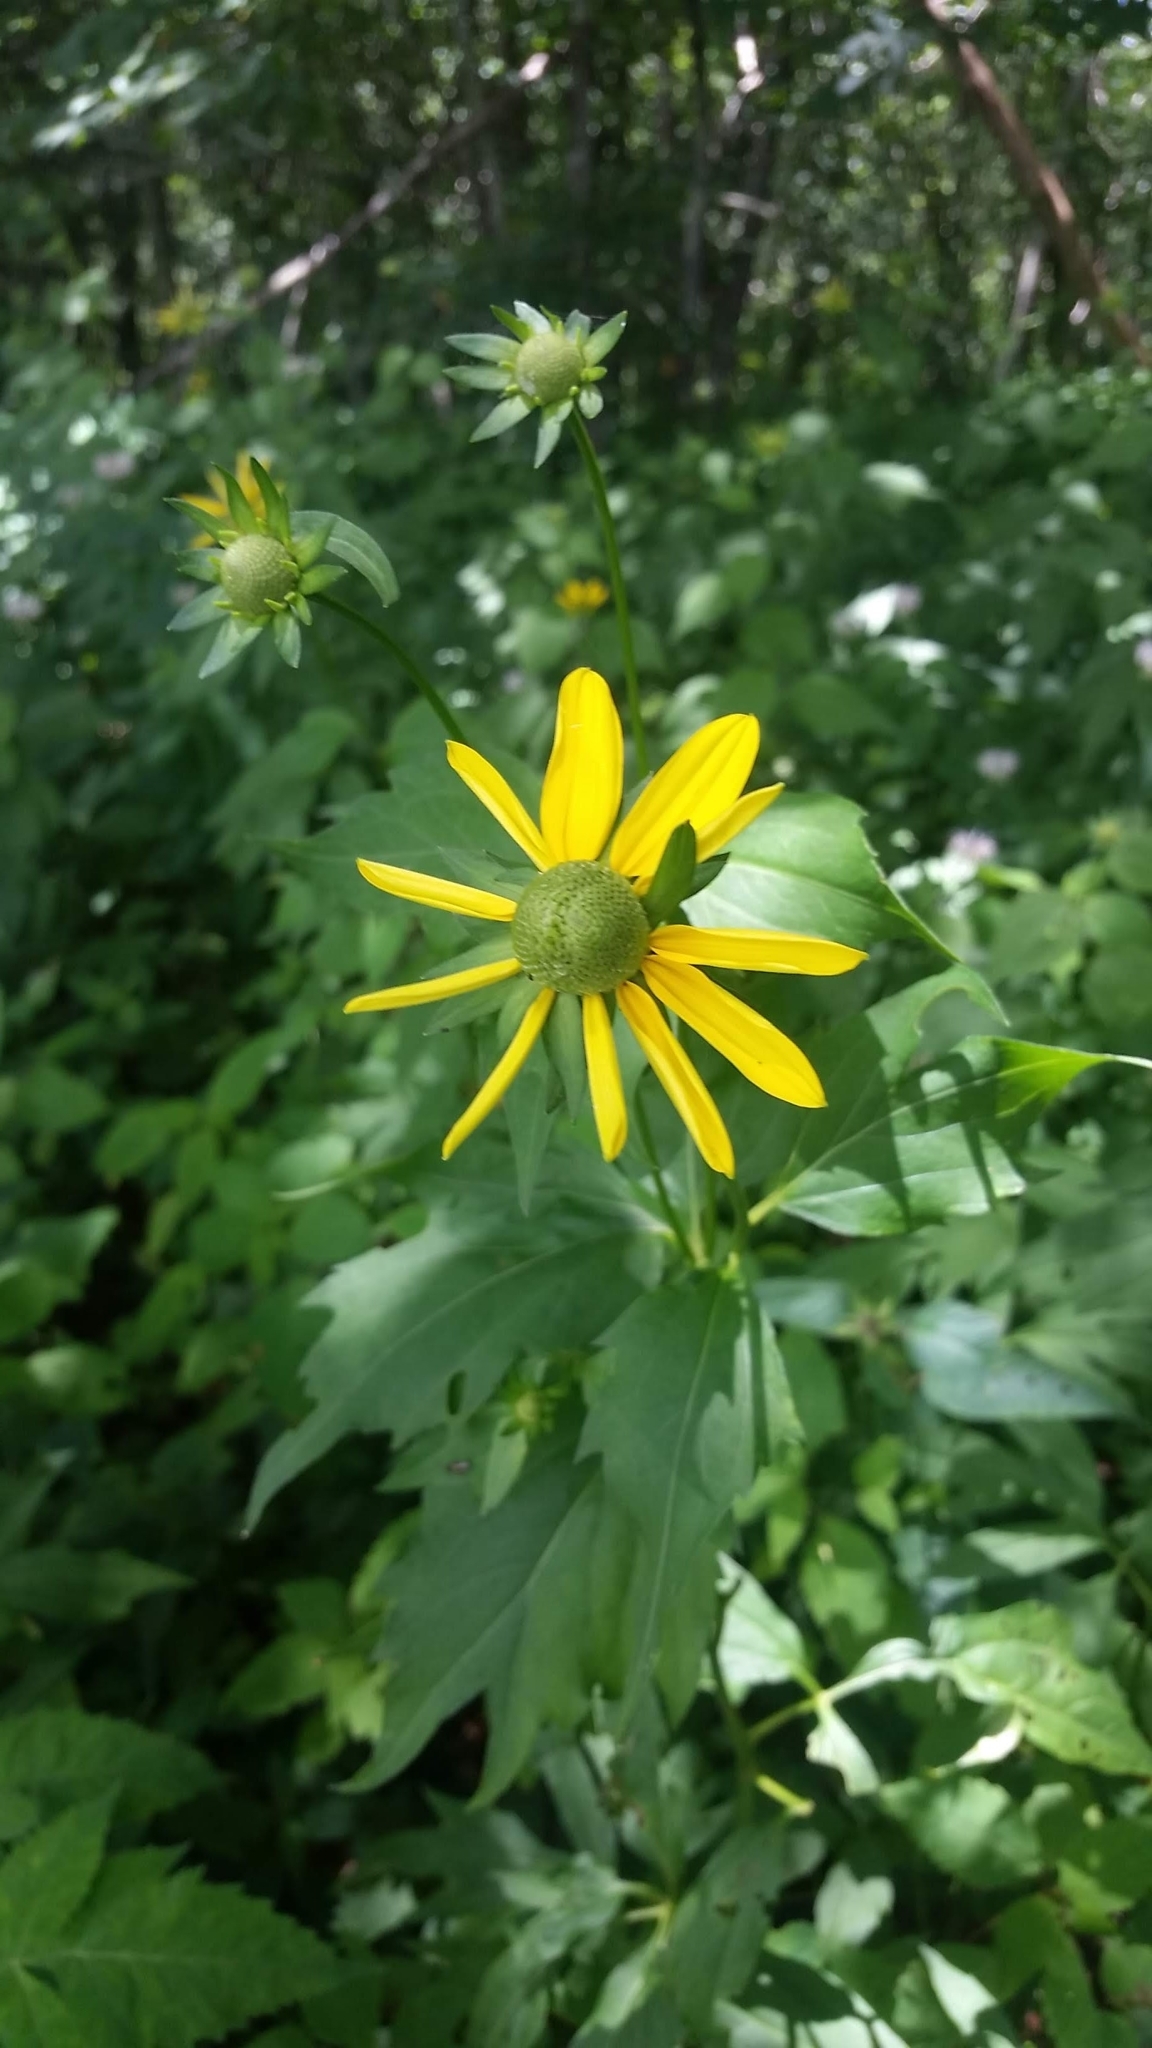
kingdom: Plantae
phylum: Tracheophyta
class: Magnoliopsida
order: Asterales
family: Asteraceae
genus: Rudbeckia
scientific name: Rudbeckia laciniata
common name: Coneflower
